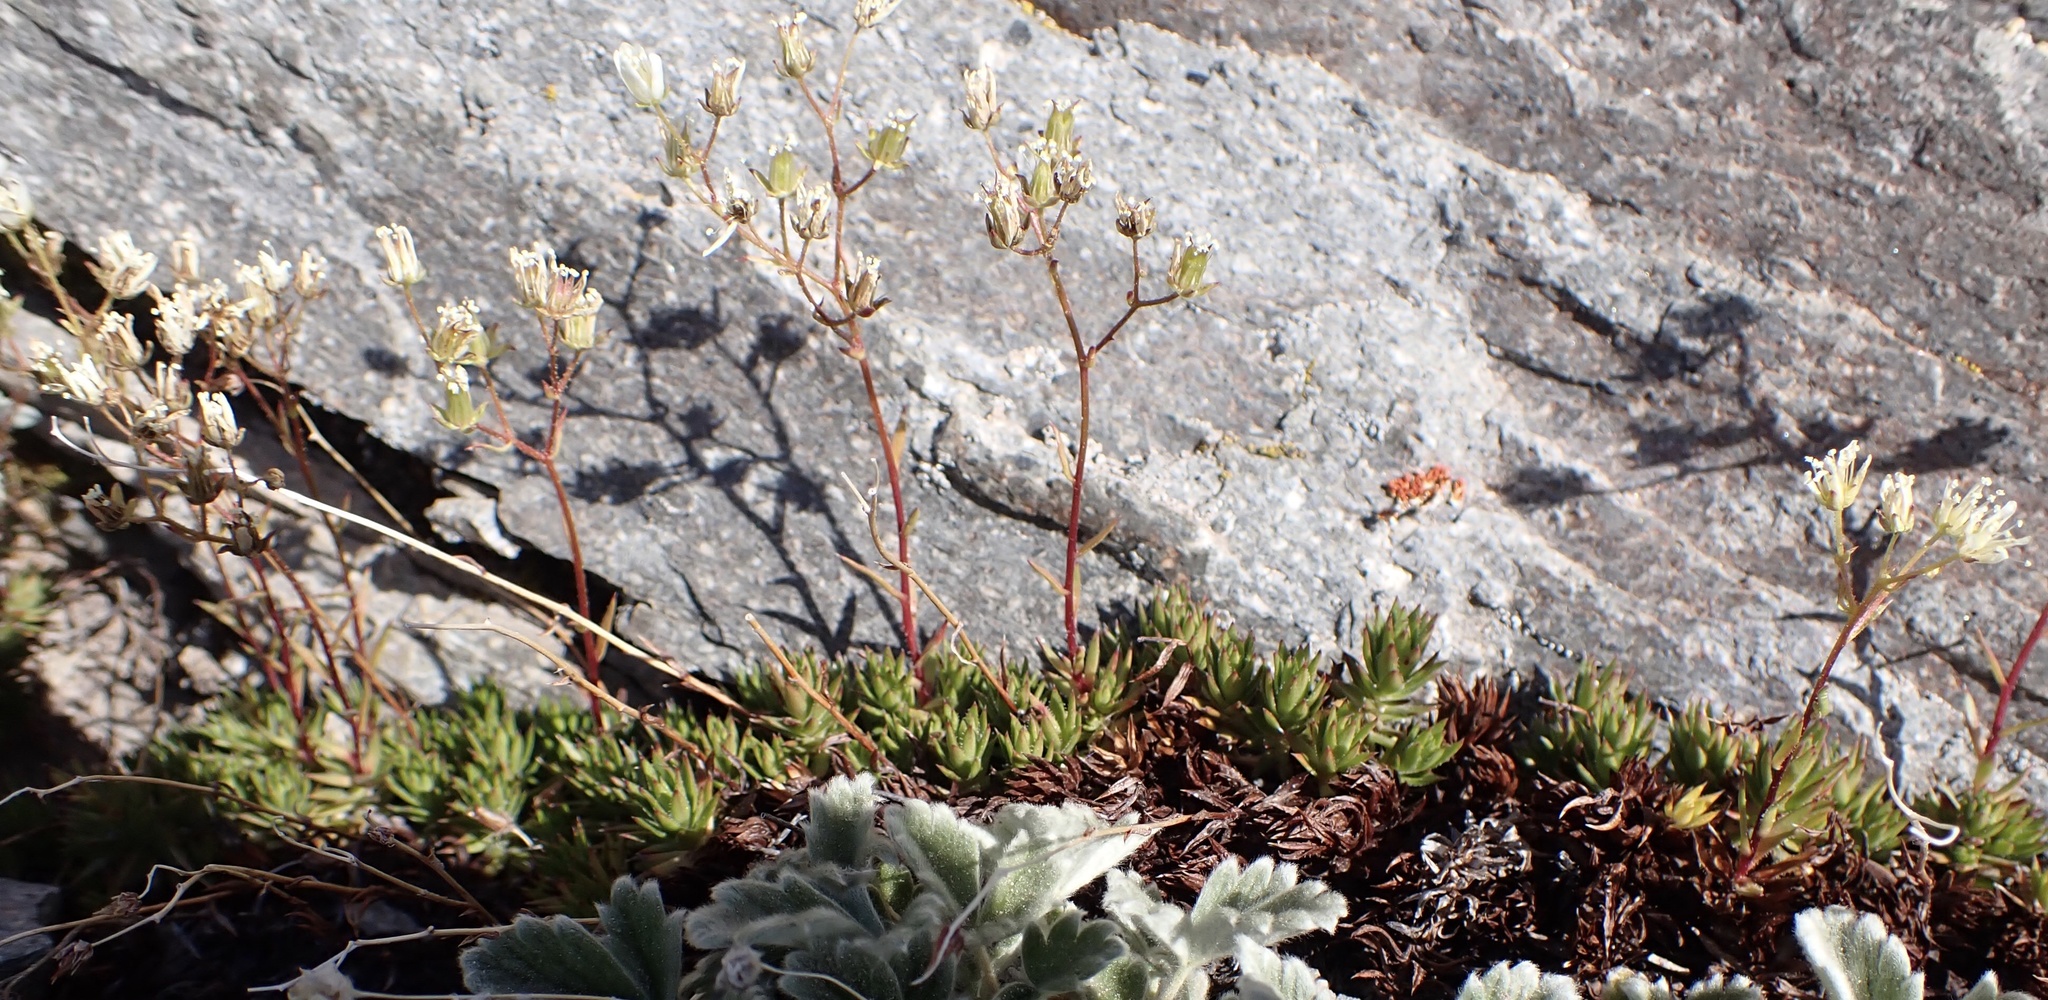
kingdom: Plantae
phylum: Tracheophyta
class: Magnoliopsida
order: Saxifragales
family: Saxifragaceae
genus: Saxifraga
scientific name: Saxifraga bronchialis
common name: Matted saxifrage
